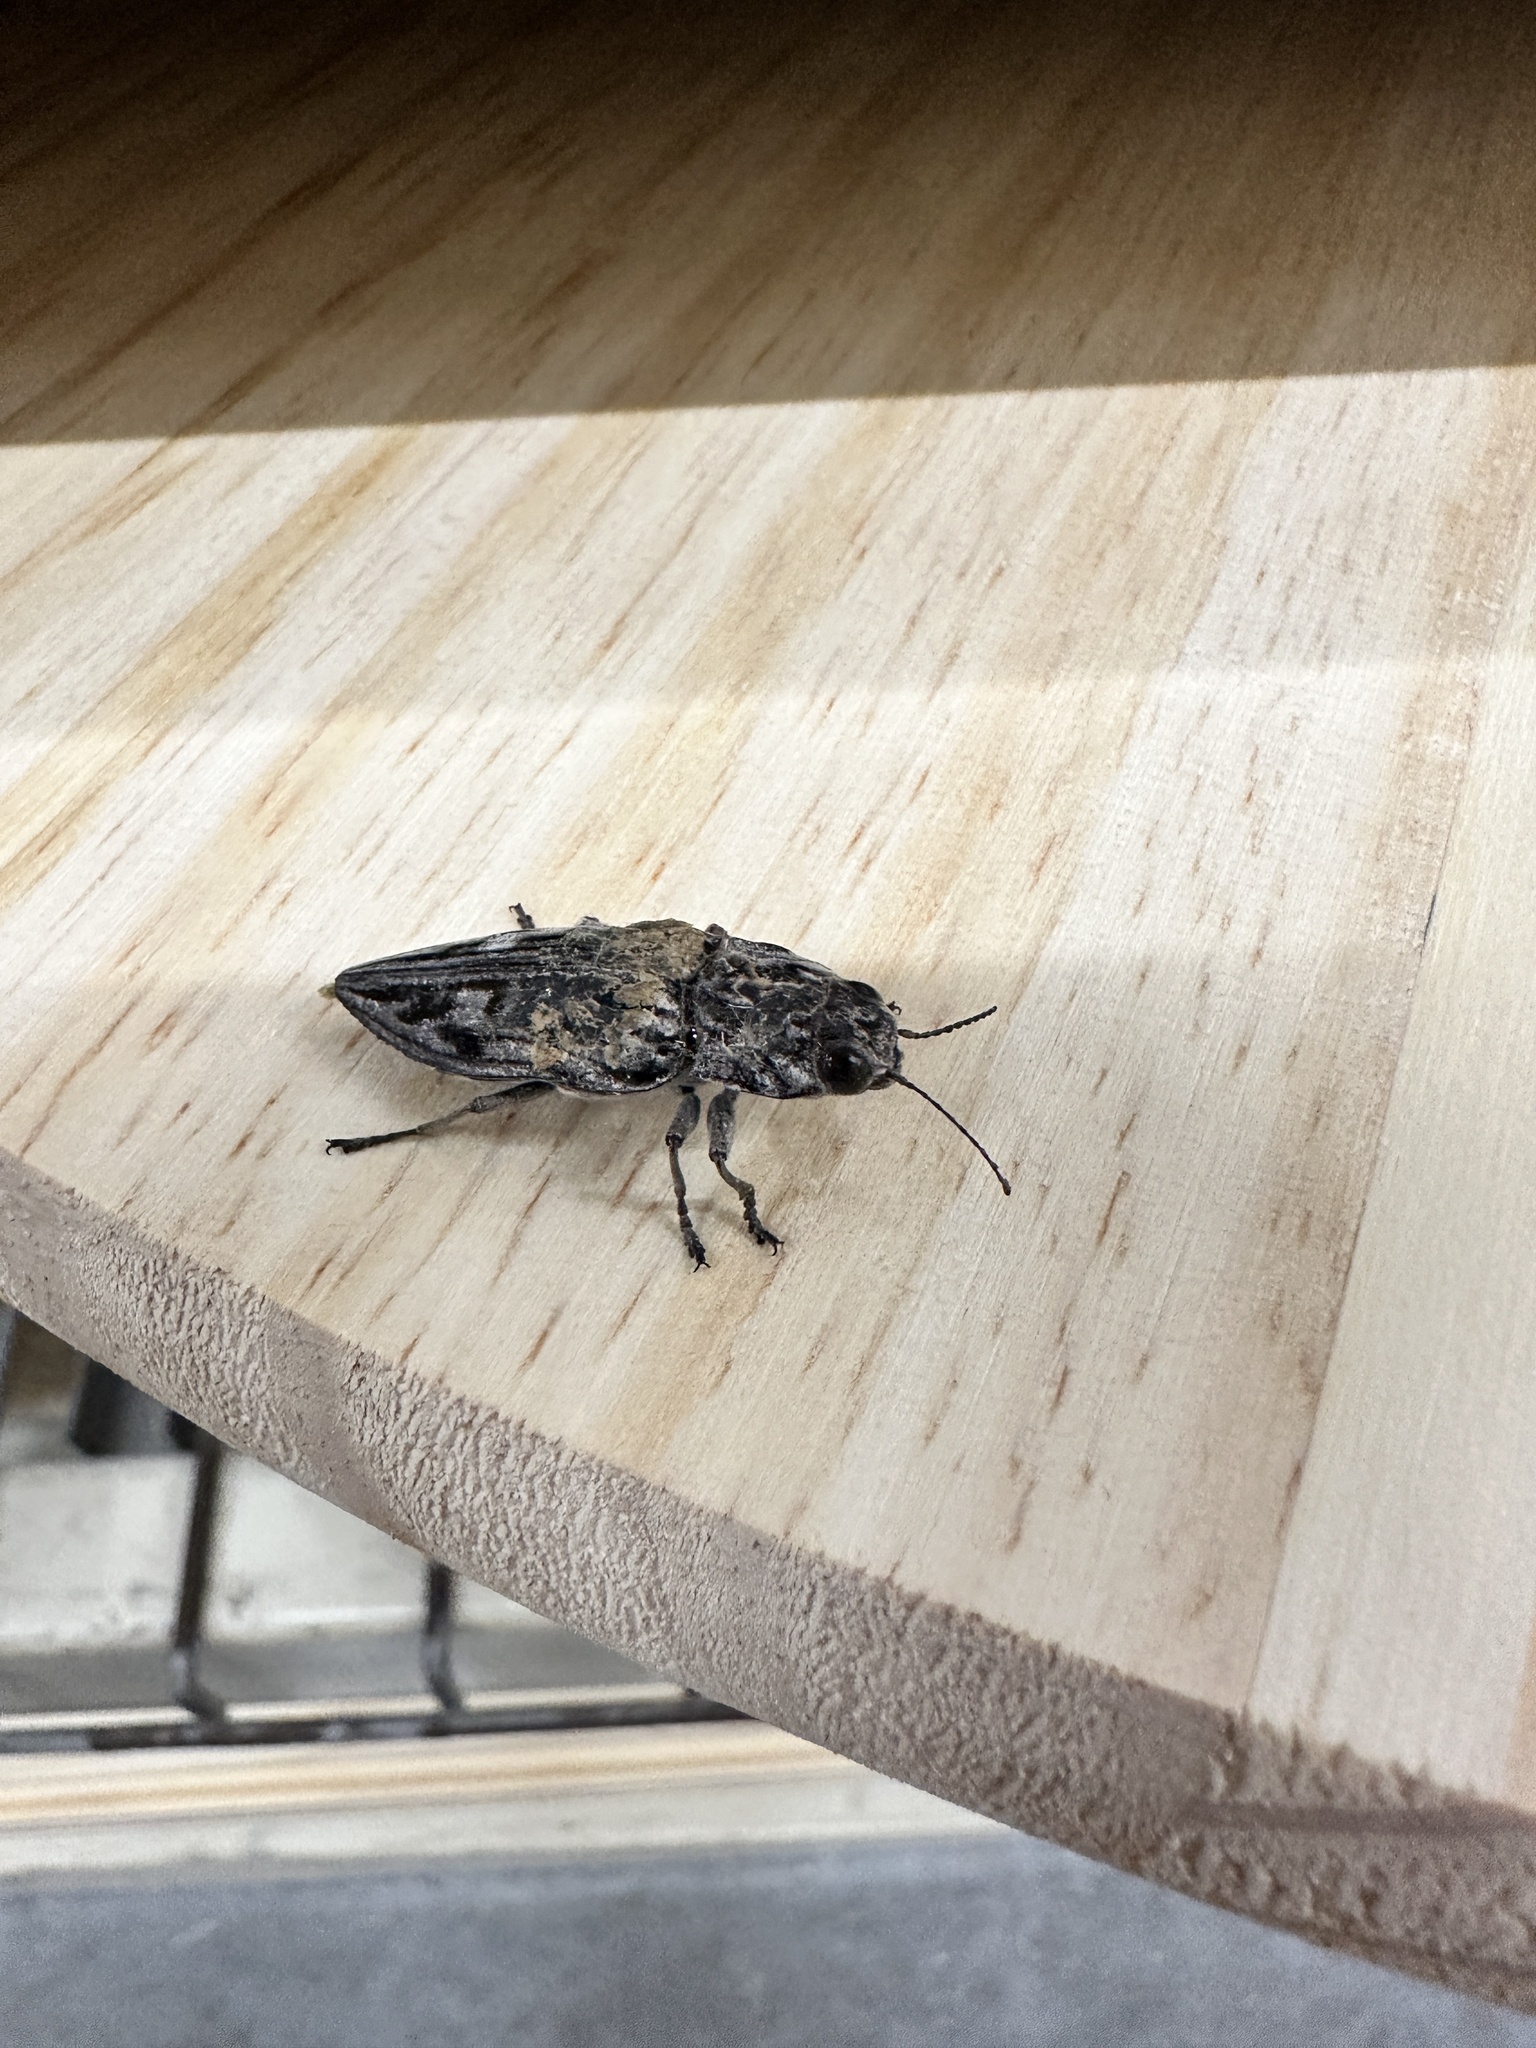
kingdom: Animalia
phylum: Arthropoda
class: Insecta
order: Coleoptera
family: Buprestidae
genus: Chalcophora
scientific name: Chalcophora virginiensis
